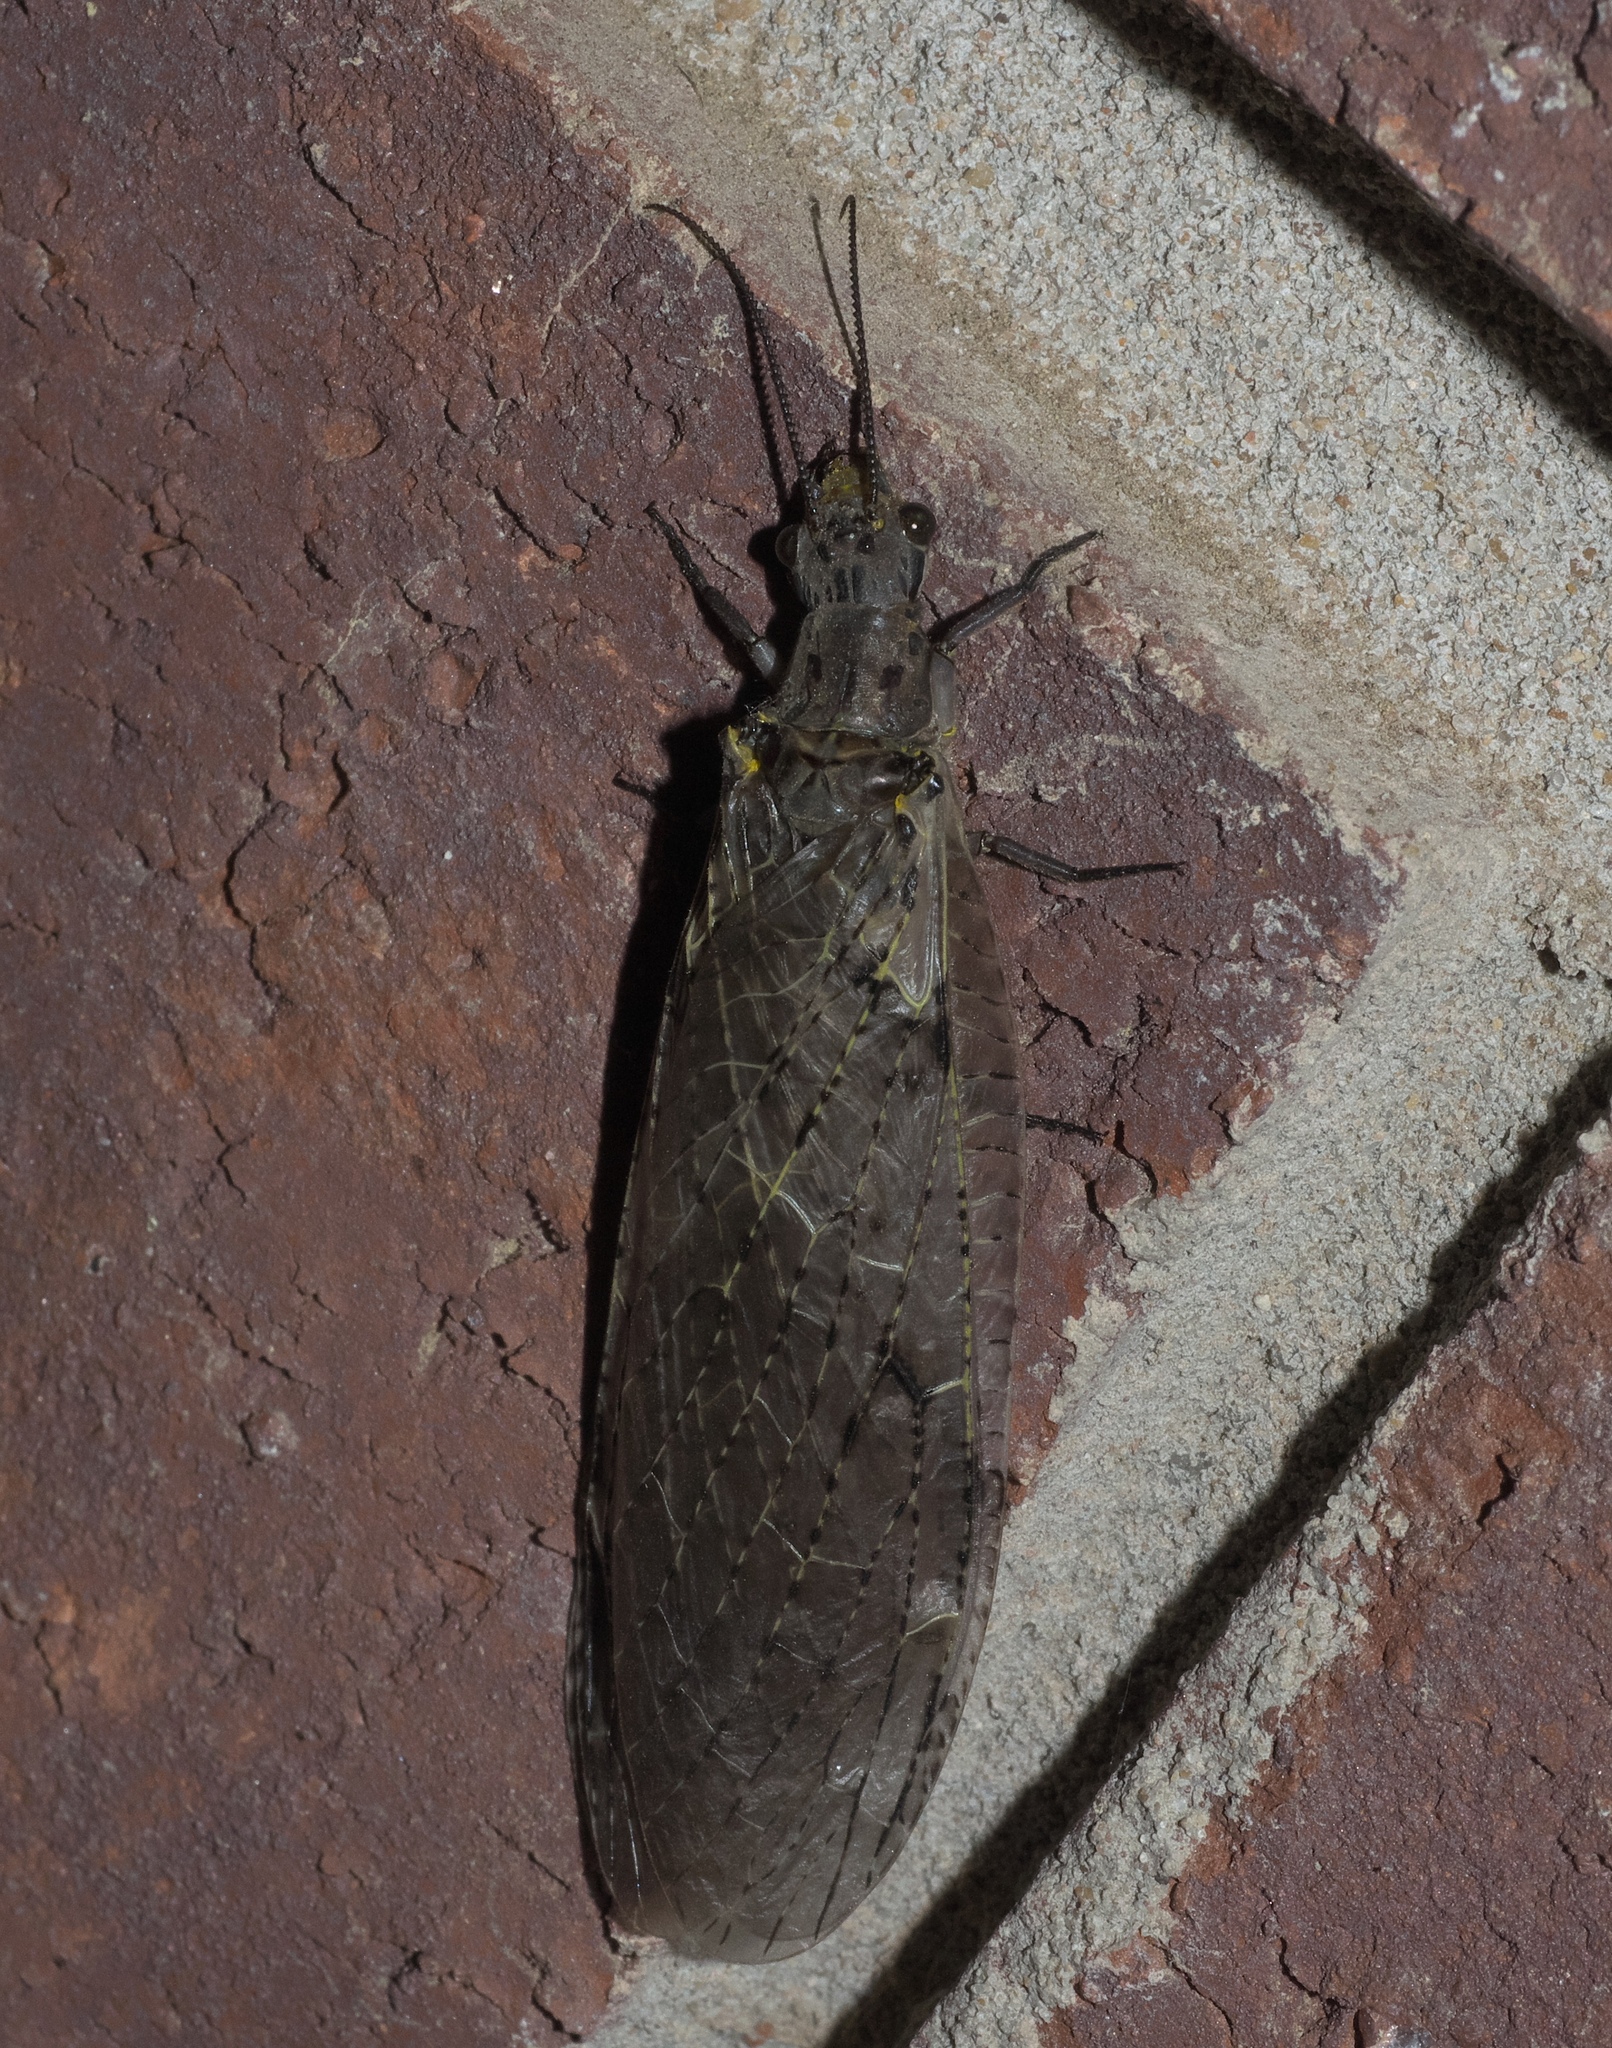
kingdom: Animalia
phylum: Arthropoda
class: Insecta
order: Megaloptera
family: Corydalidae
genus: Chauliodes
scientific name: Chauliodes rastricornis
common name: Spring fishfly
